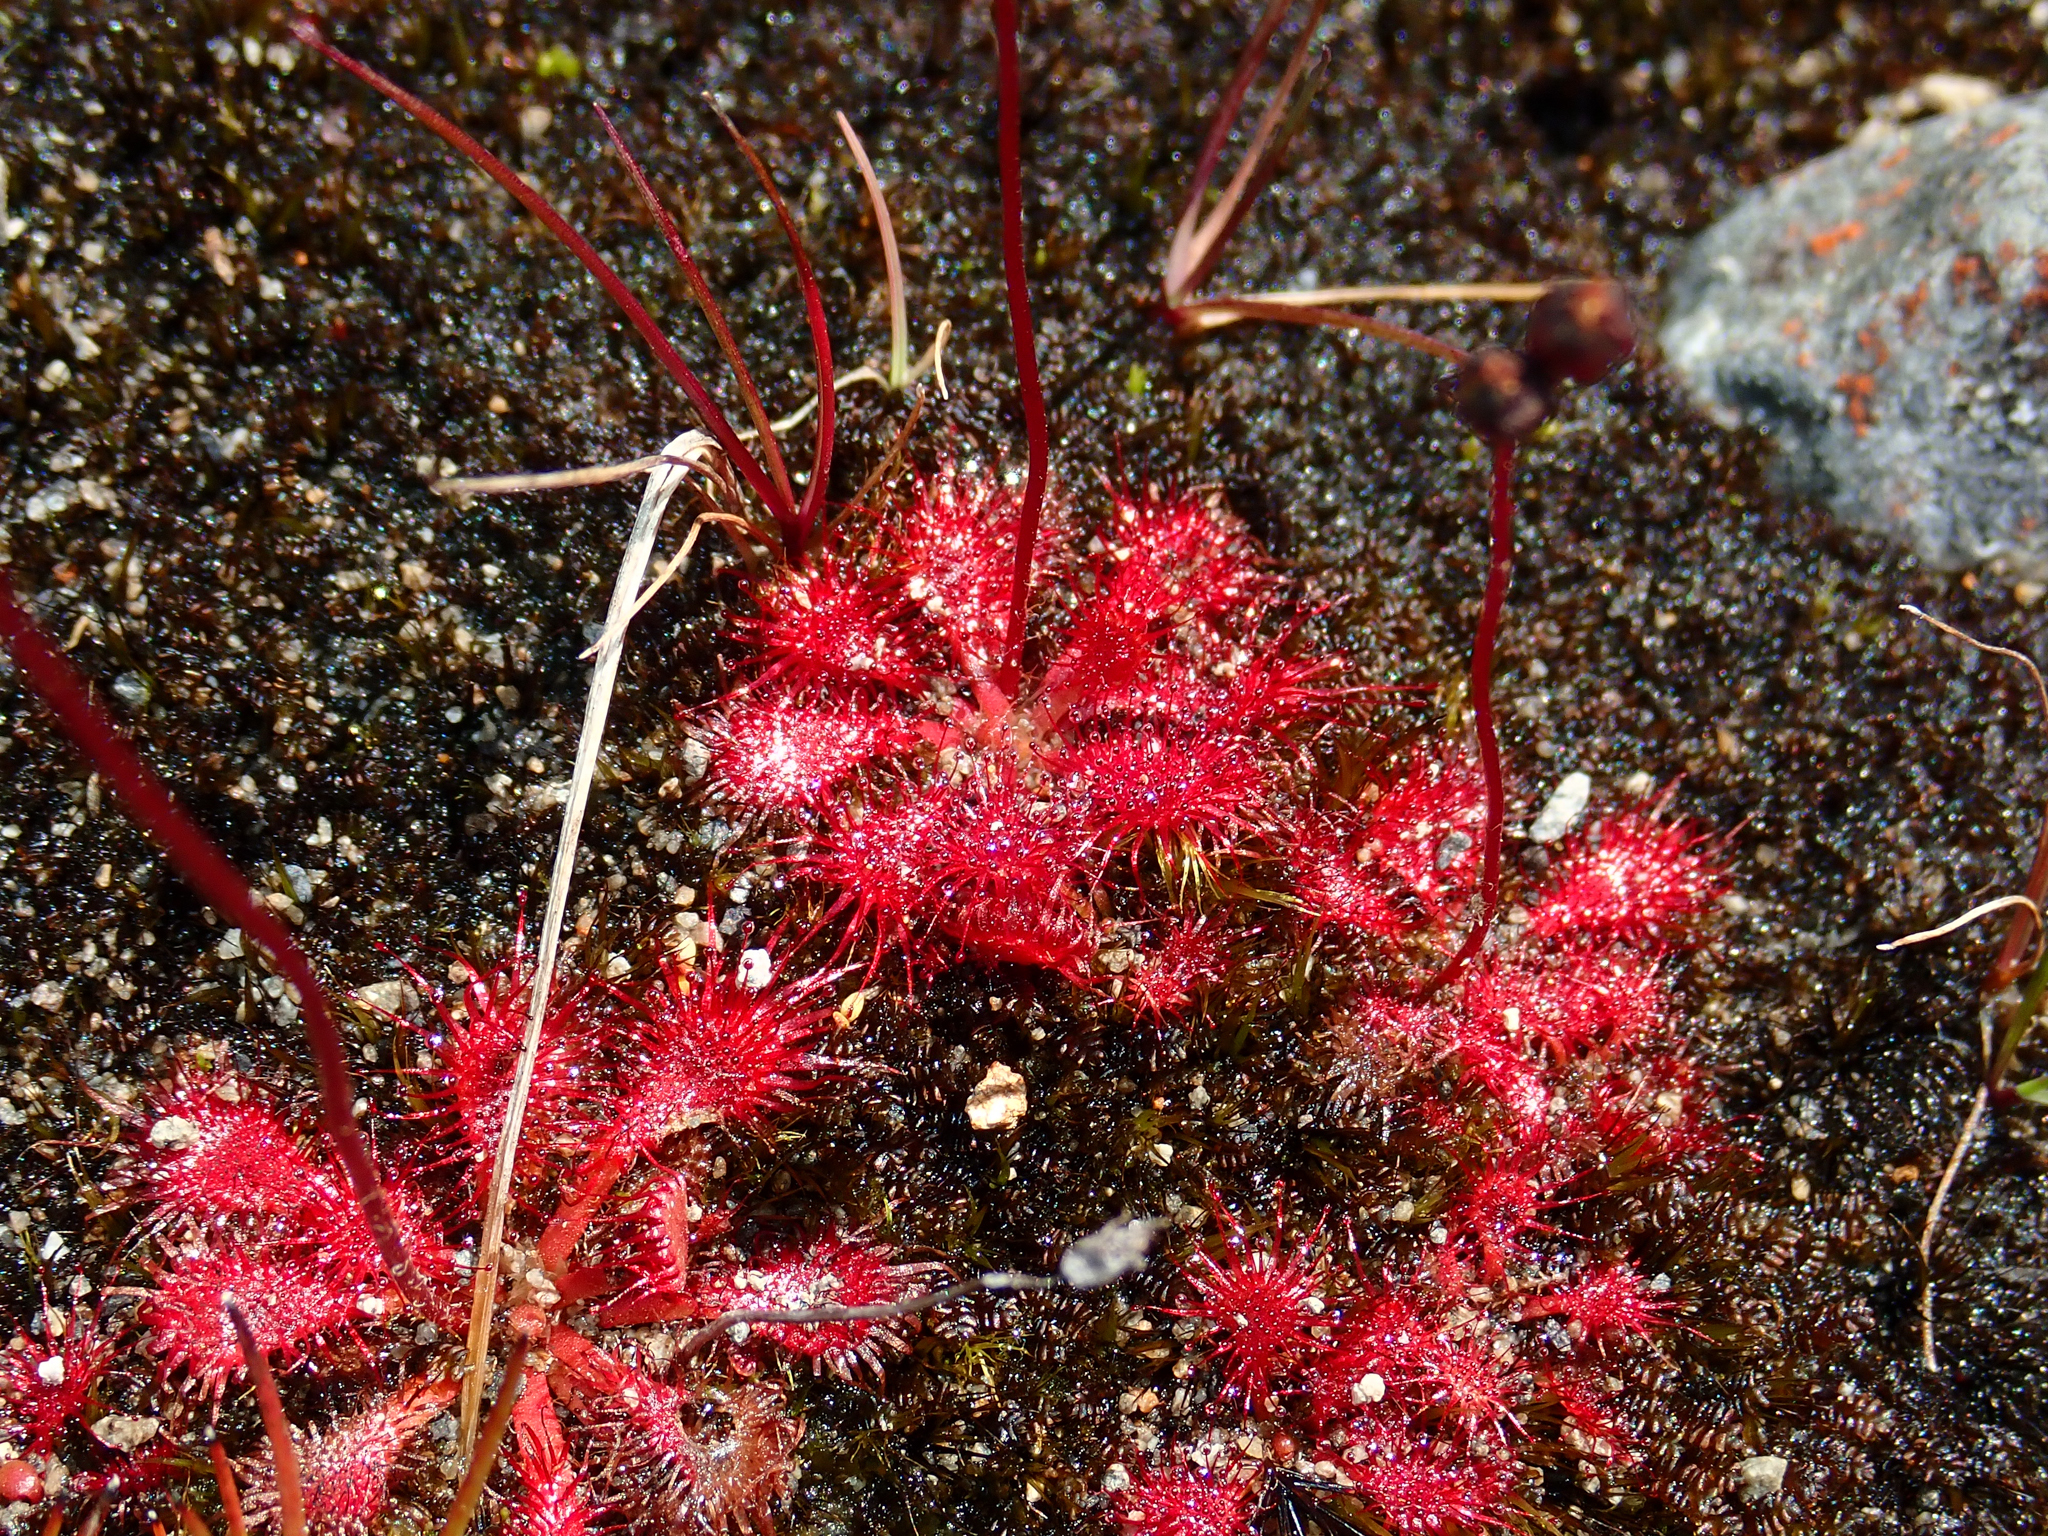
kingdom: Plantae
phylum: Tracheophyta
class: Magnoliopsida
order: Caryophyllales
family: Droseraceae
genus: Drosera
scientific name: Drosera spatulata
